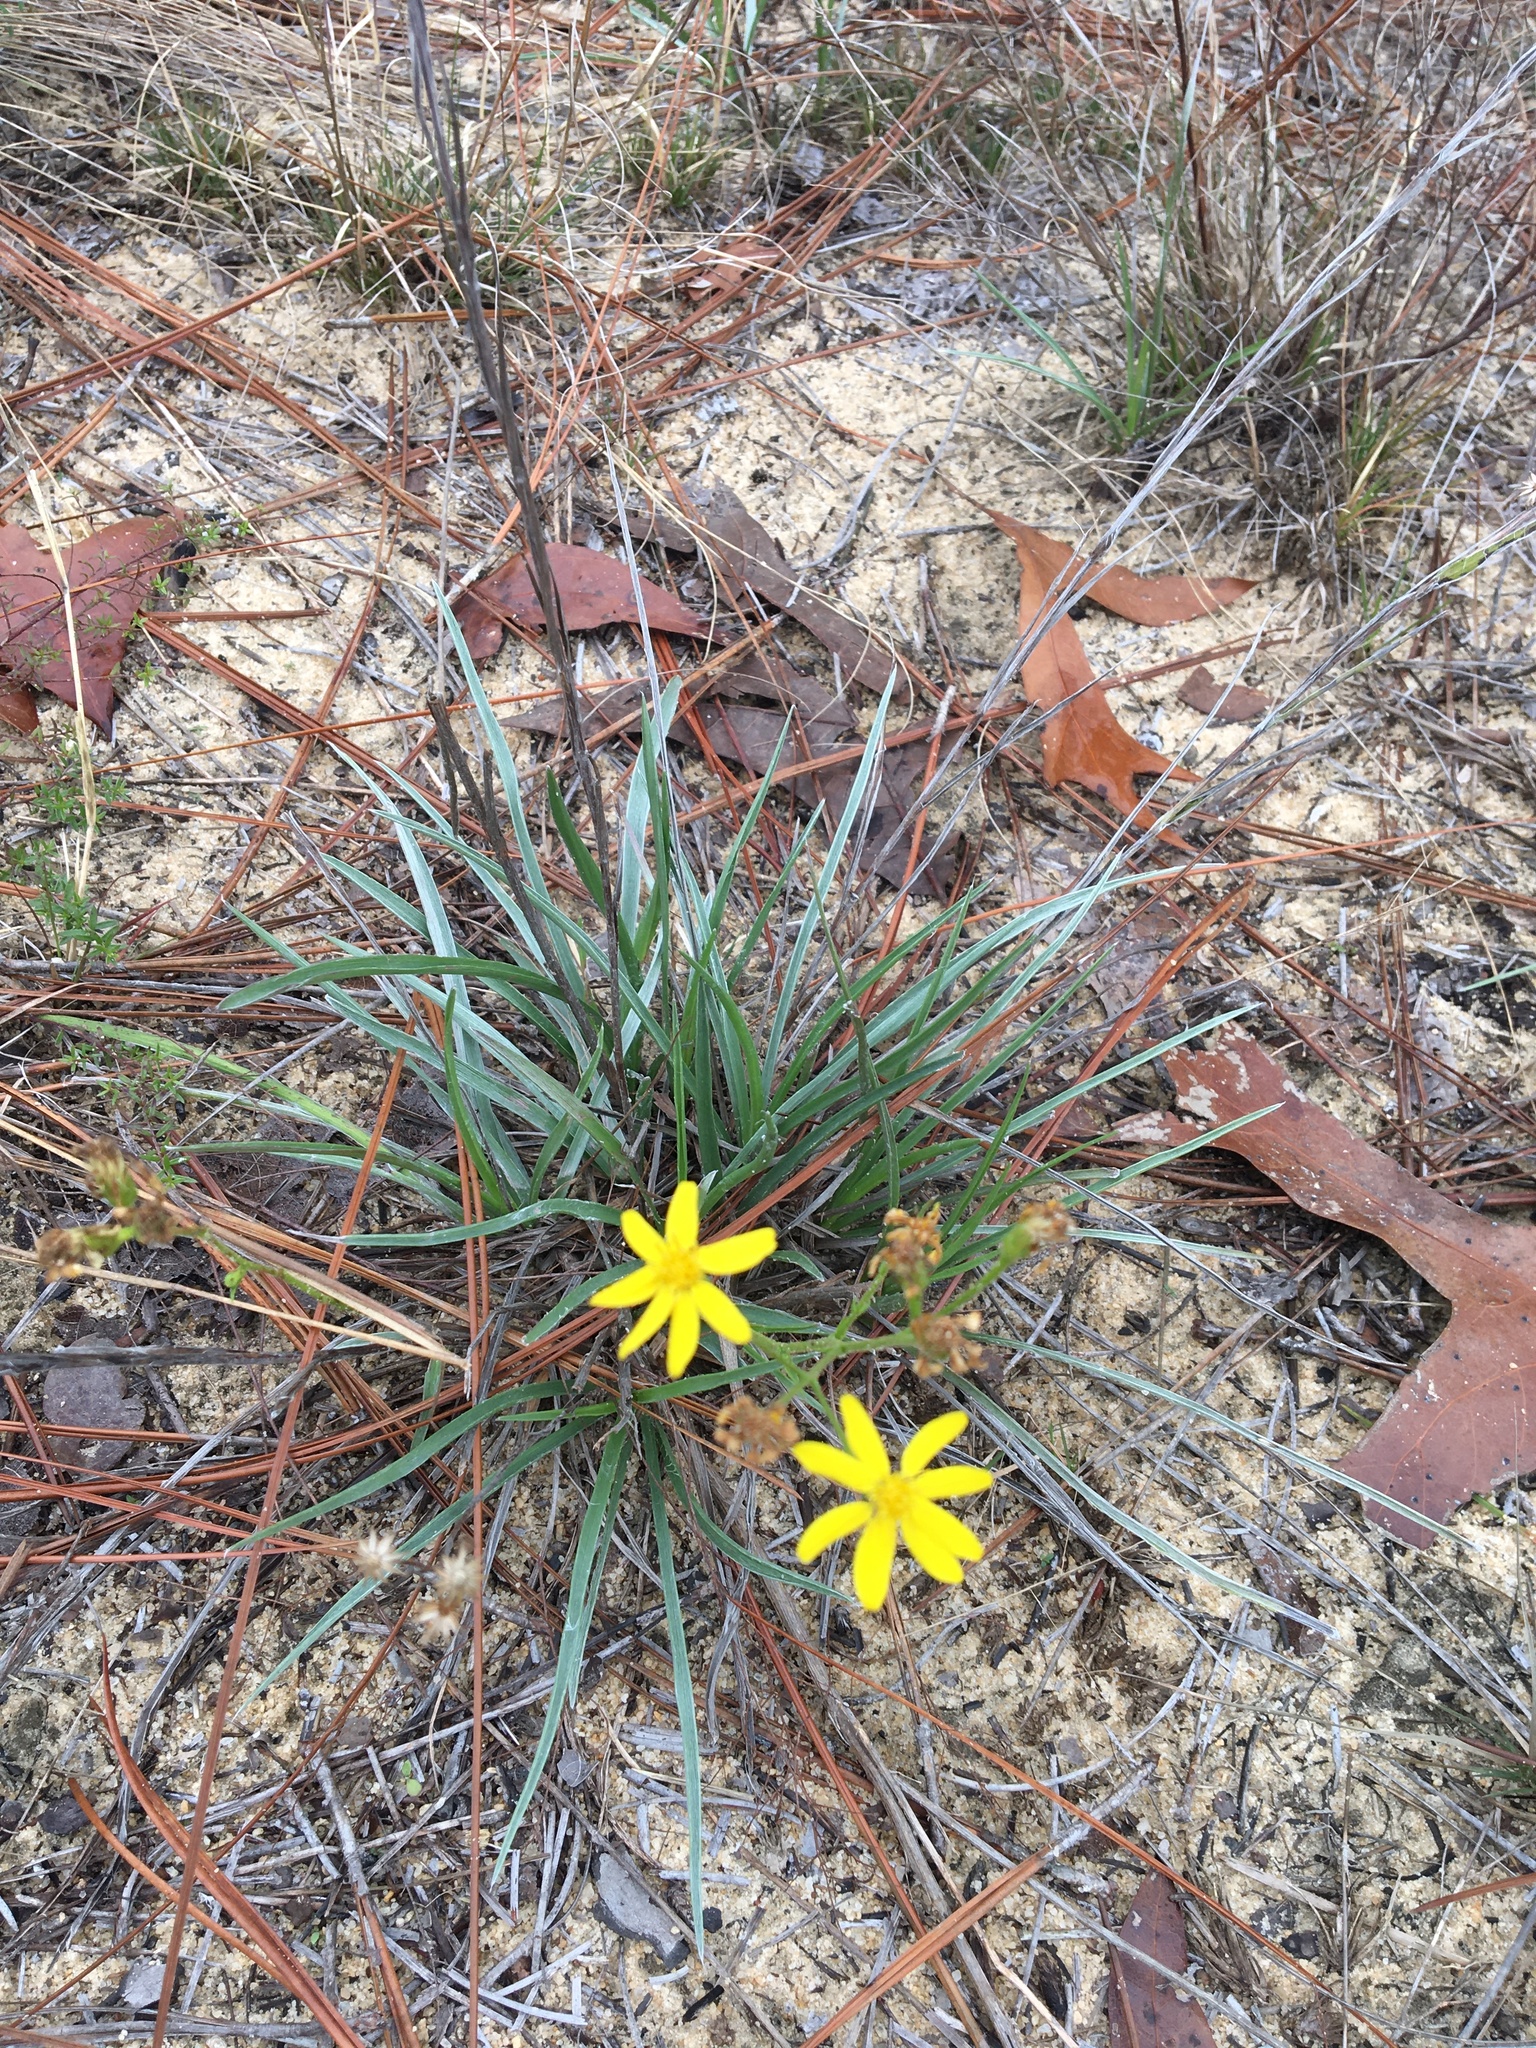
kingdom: Plantae
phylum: Tracheophyta
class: Magnoliopsida
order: Asterales
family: Asteraceae
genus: Pityopsis
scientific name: Pityopsis graminifolia
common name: Grass-leaf golden-aster
